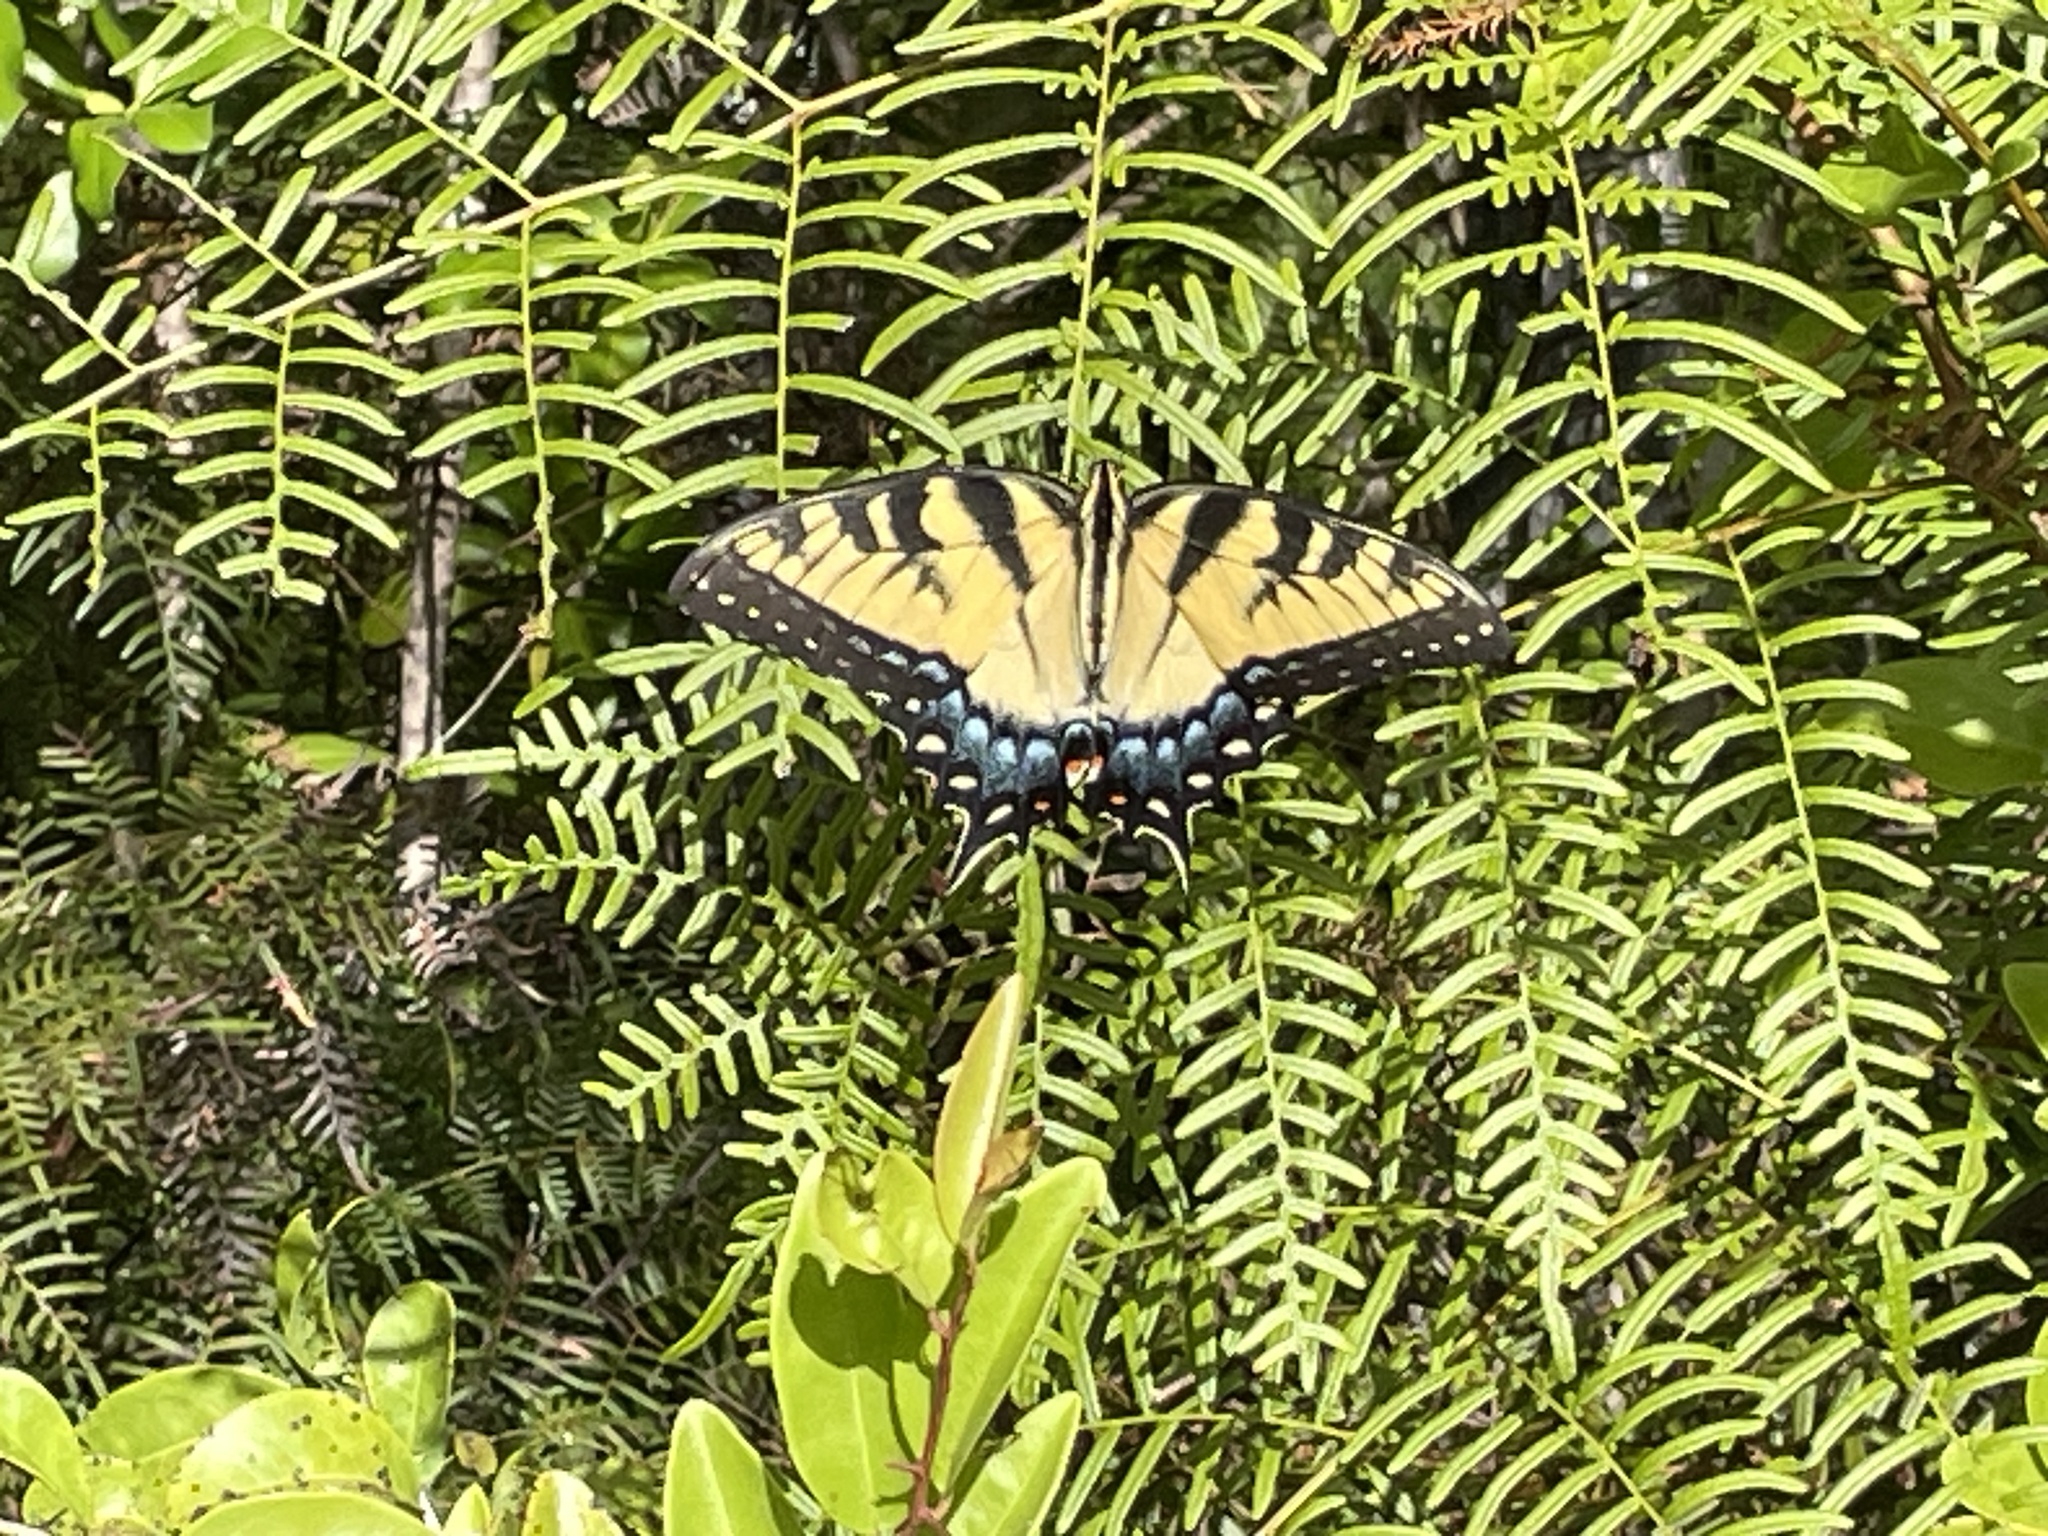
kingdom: Animalia
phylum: Arthropoda
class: Insecta
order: Lepidoptera
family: Papilionidae
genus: Papilio
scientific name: Papilio glaucus
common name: Tiger swallowtail
